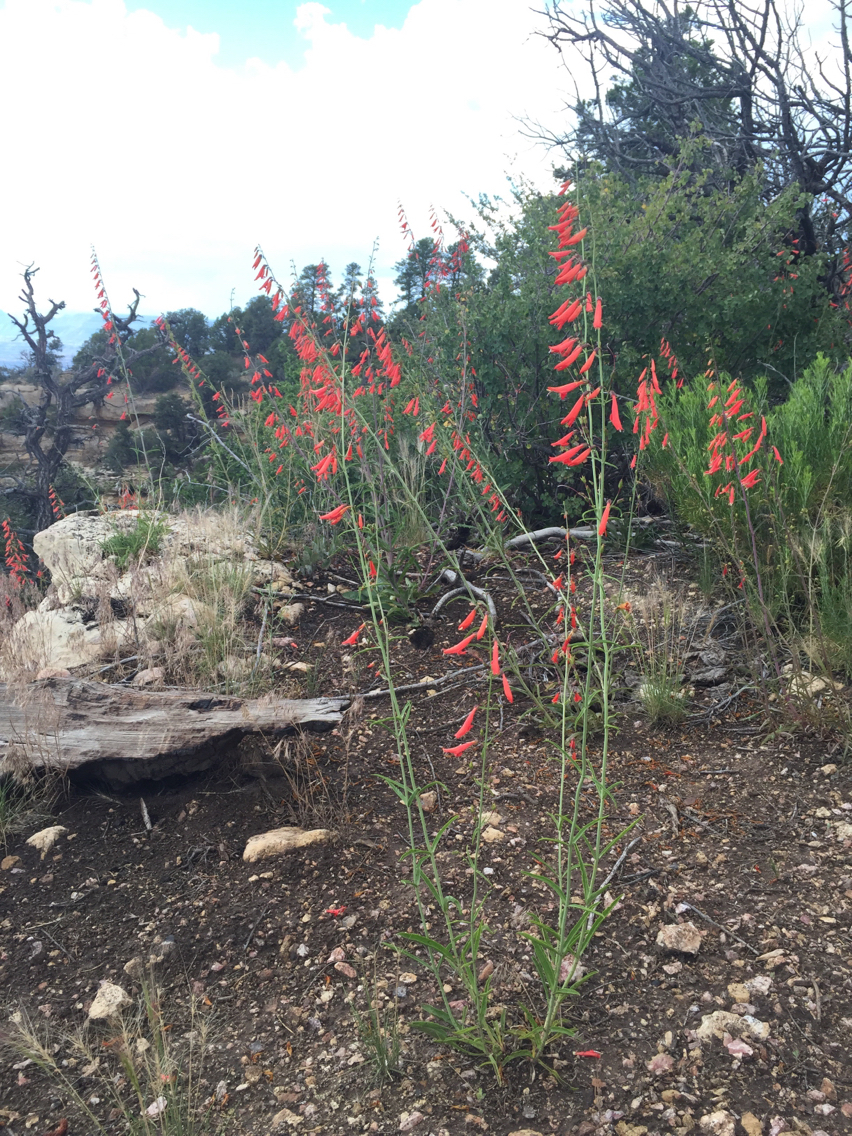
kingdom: Plantae
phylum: Tracheophyta
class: Magnoliopsida
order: Lamiales
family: Plantaginaceae
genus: Penstemon
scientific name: Penstemon barbatus
